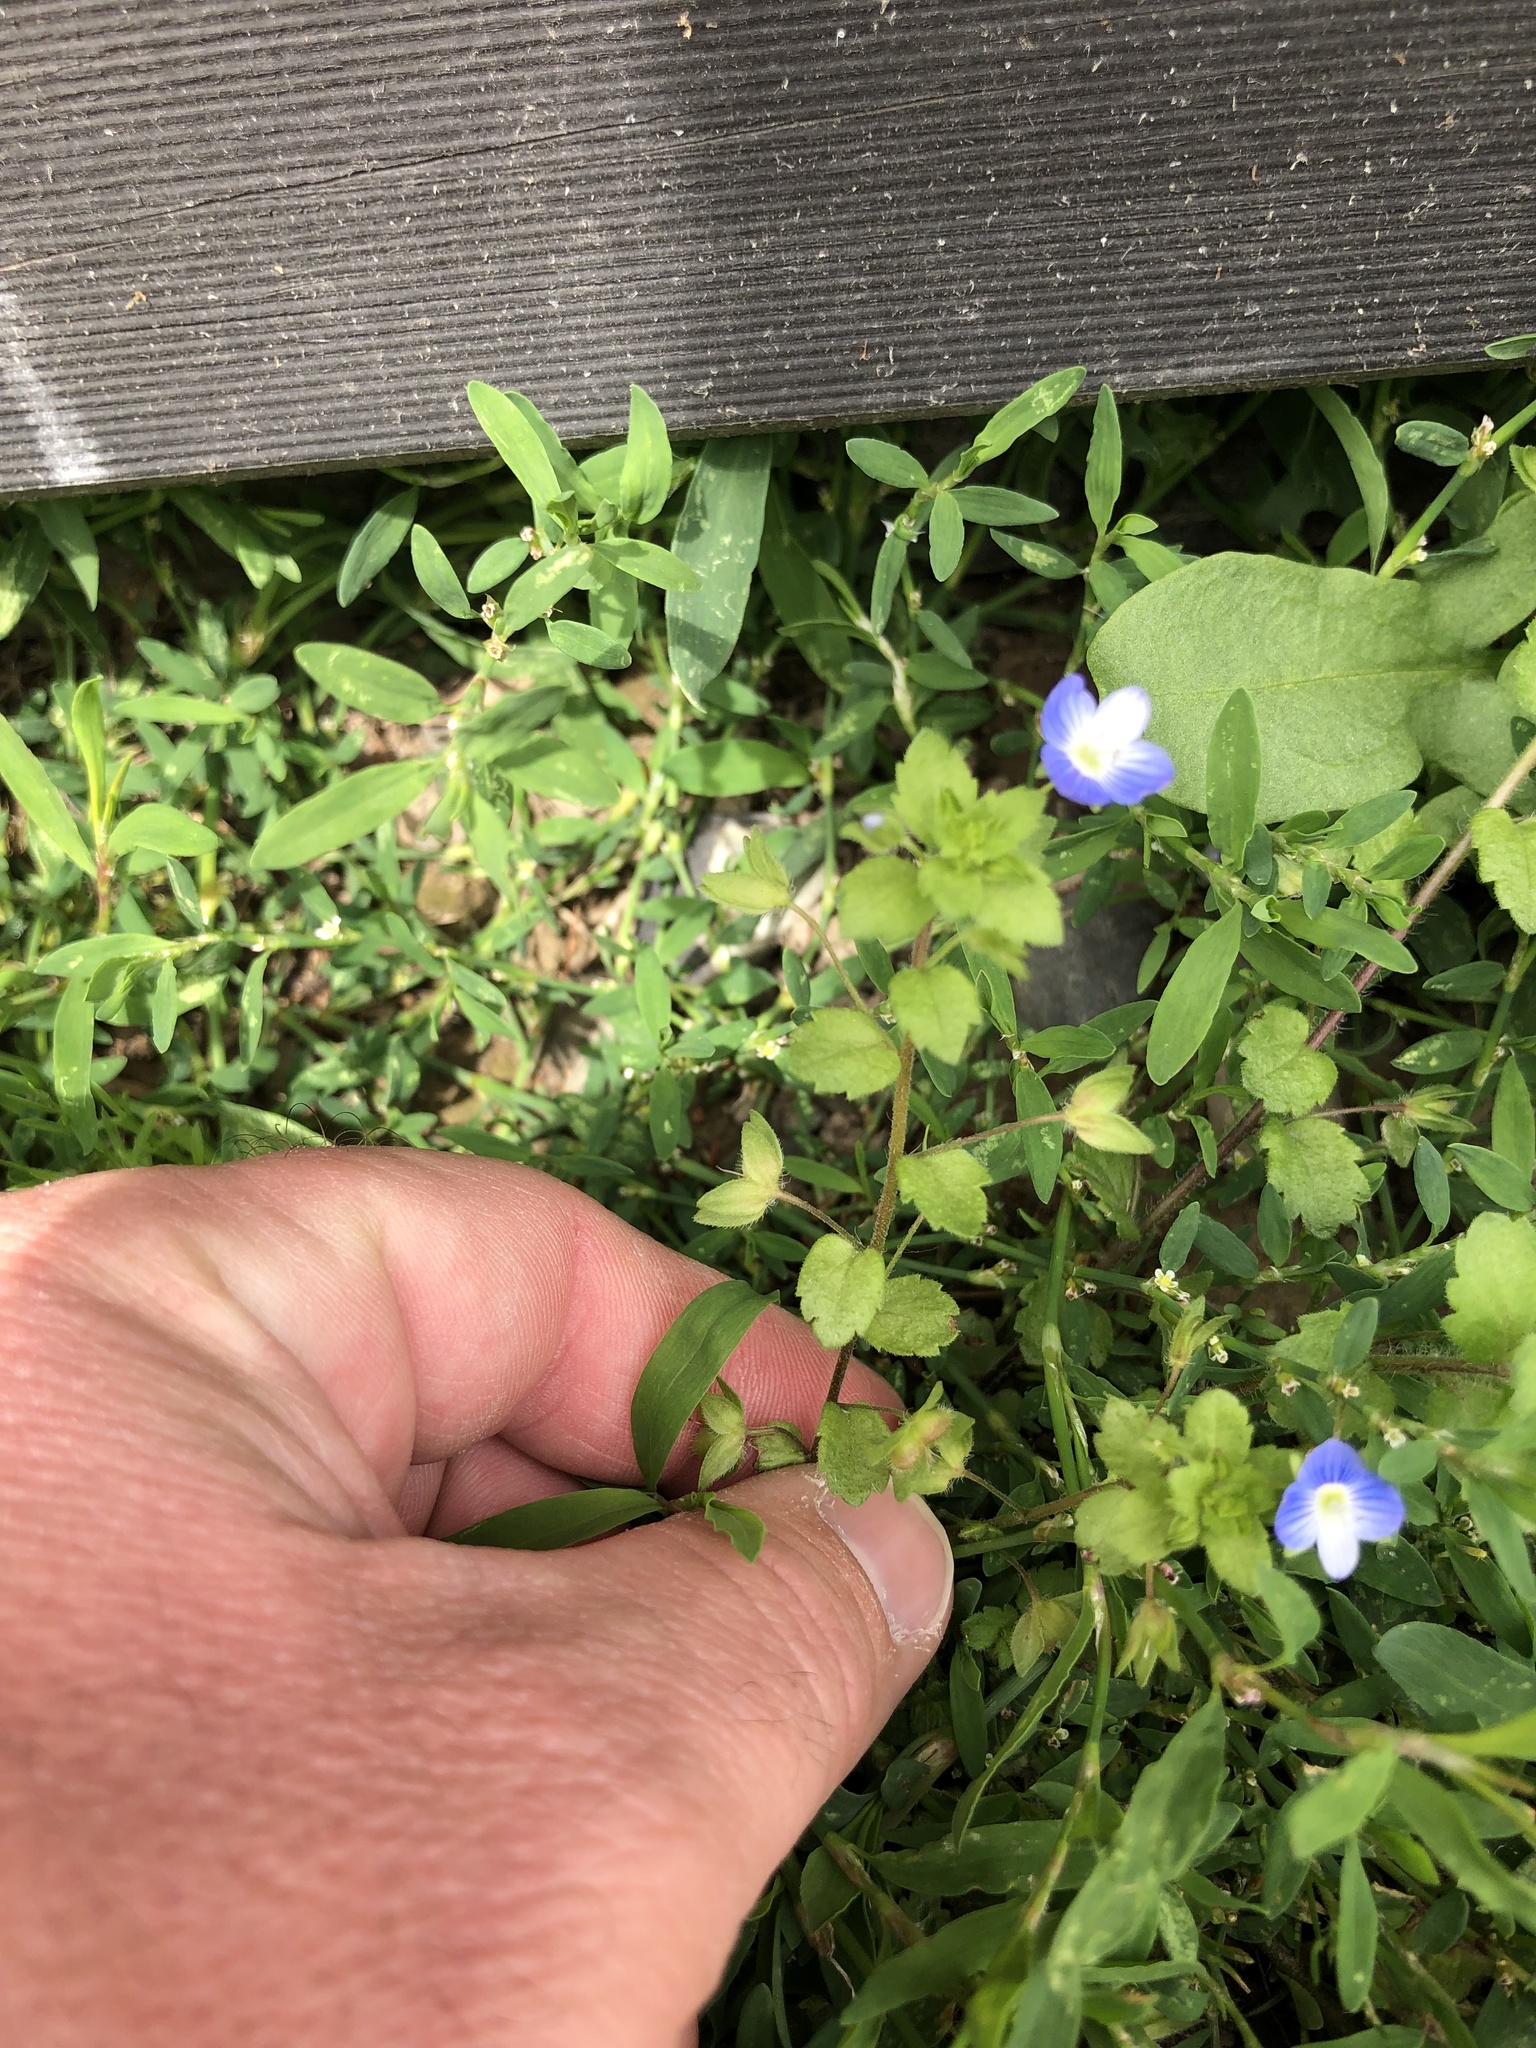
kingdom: Plantae
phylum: Tracheophyta
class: Magnoliopsida
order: Lamiales
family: Plantaginaceae
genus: Veronica
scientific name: Veronica persica
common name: Common field-speedwell
